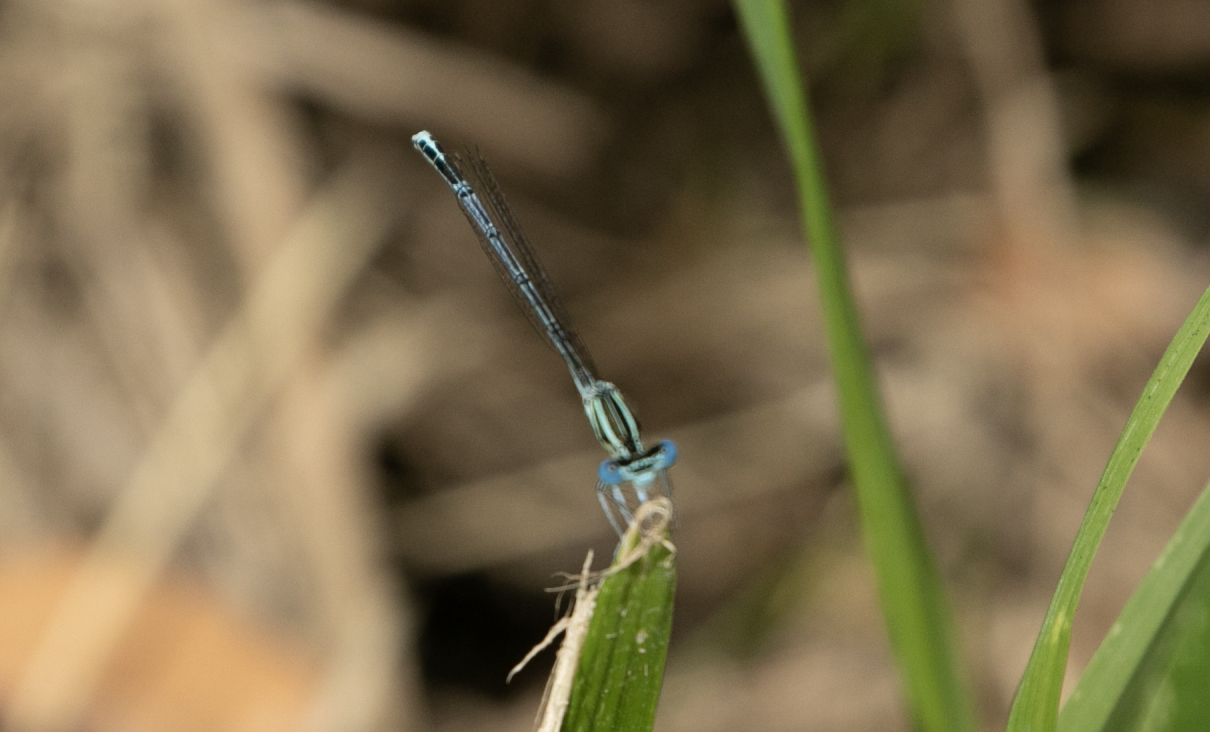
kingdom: Animalia
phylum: Arthropoda
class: Insecta
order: Odonata
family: Platycnemididae
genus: Platycnemis
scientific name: Platycnemis pennipes
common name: White-legged damselfly
